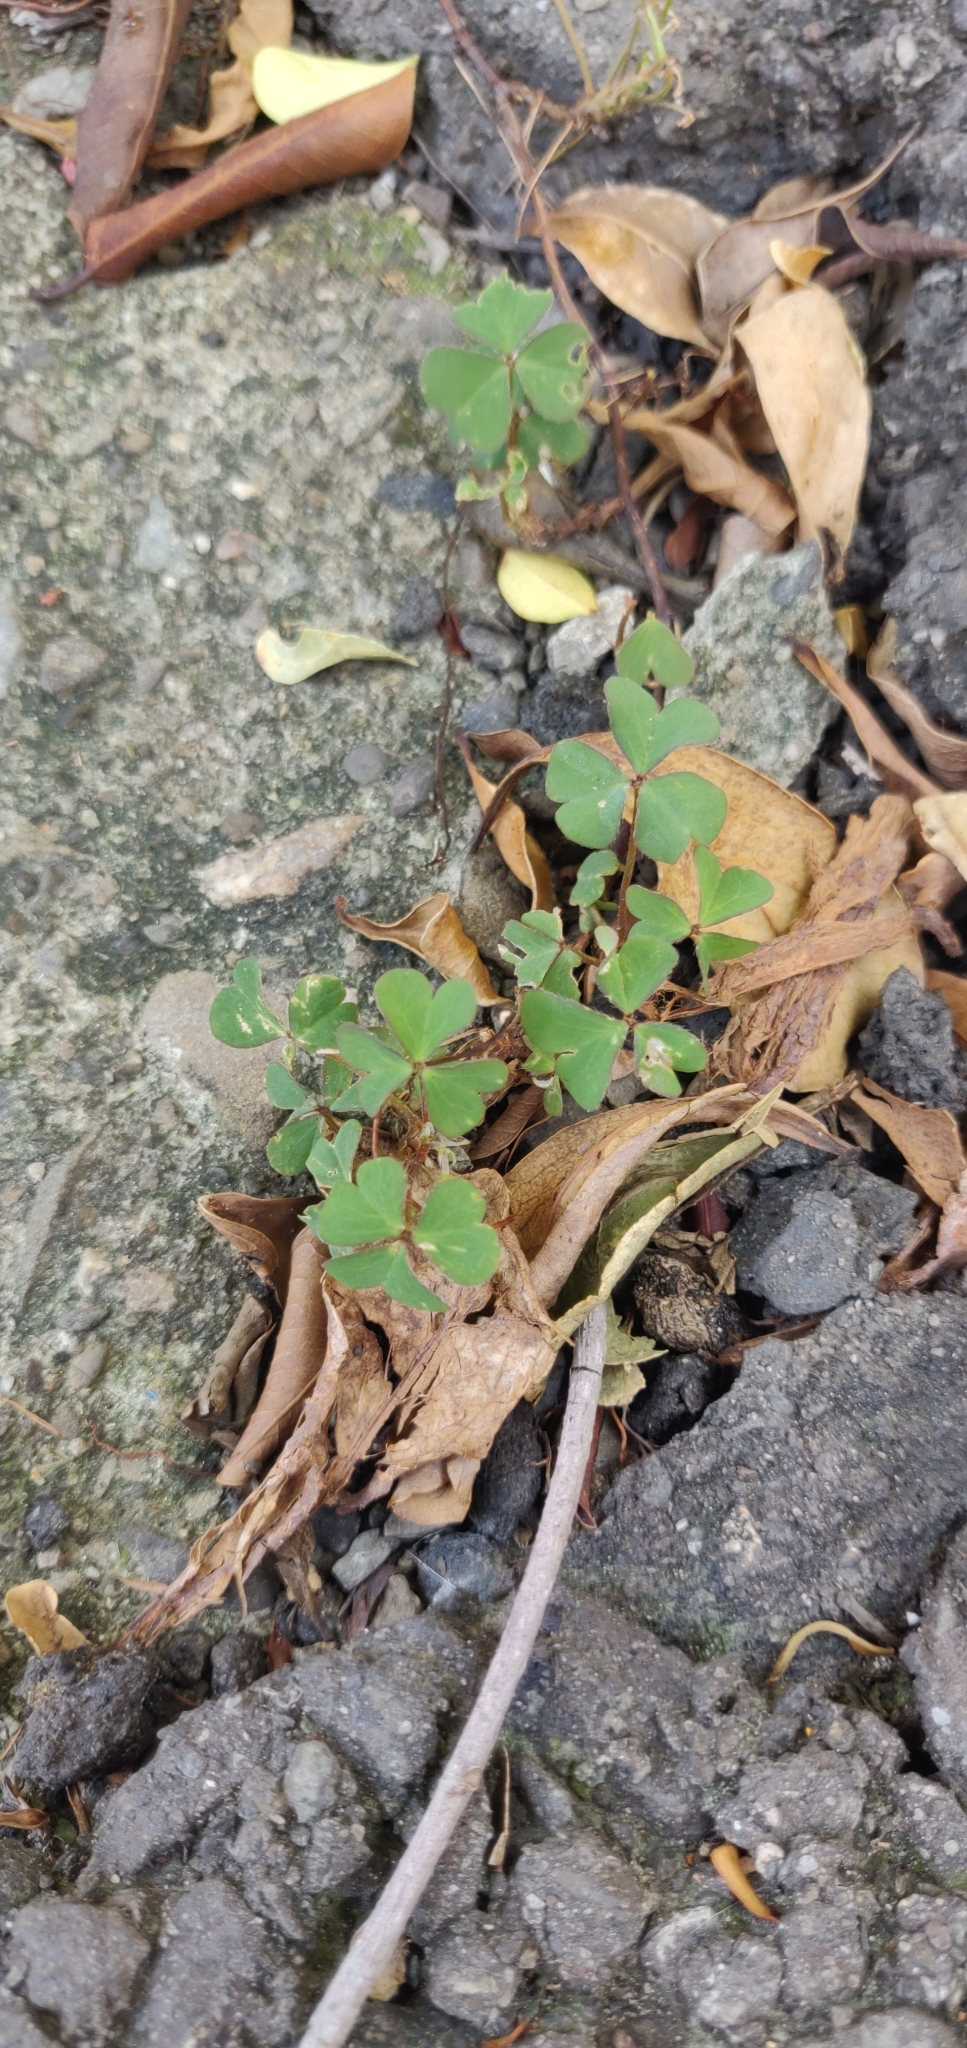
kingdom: Plantae
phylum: Tracheophyta
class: Magnoliopsida
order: Oxalidales
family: Oxalidaceae
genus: Oxalis
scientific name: Oxalis corniculata
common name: Procumbent yellow-sorrel
